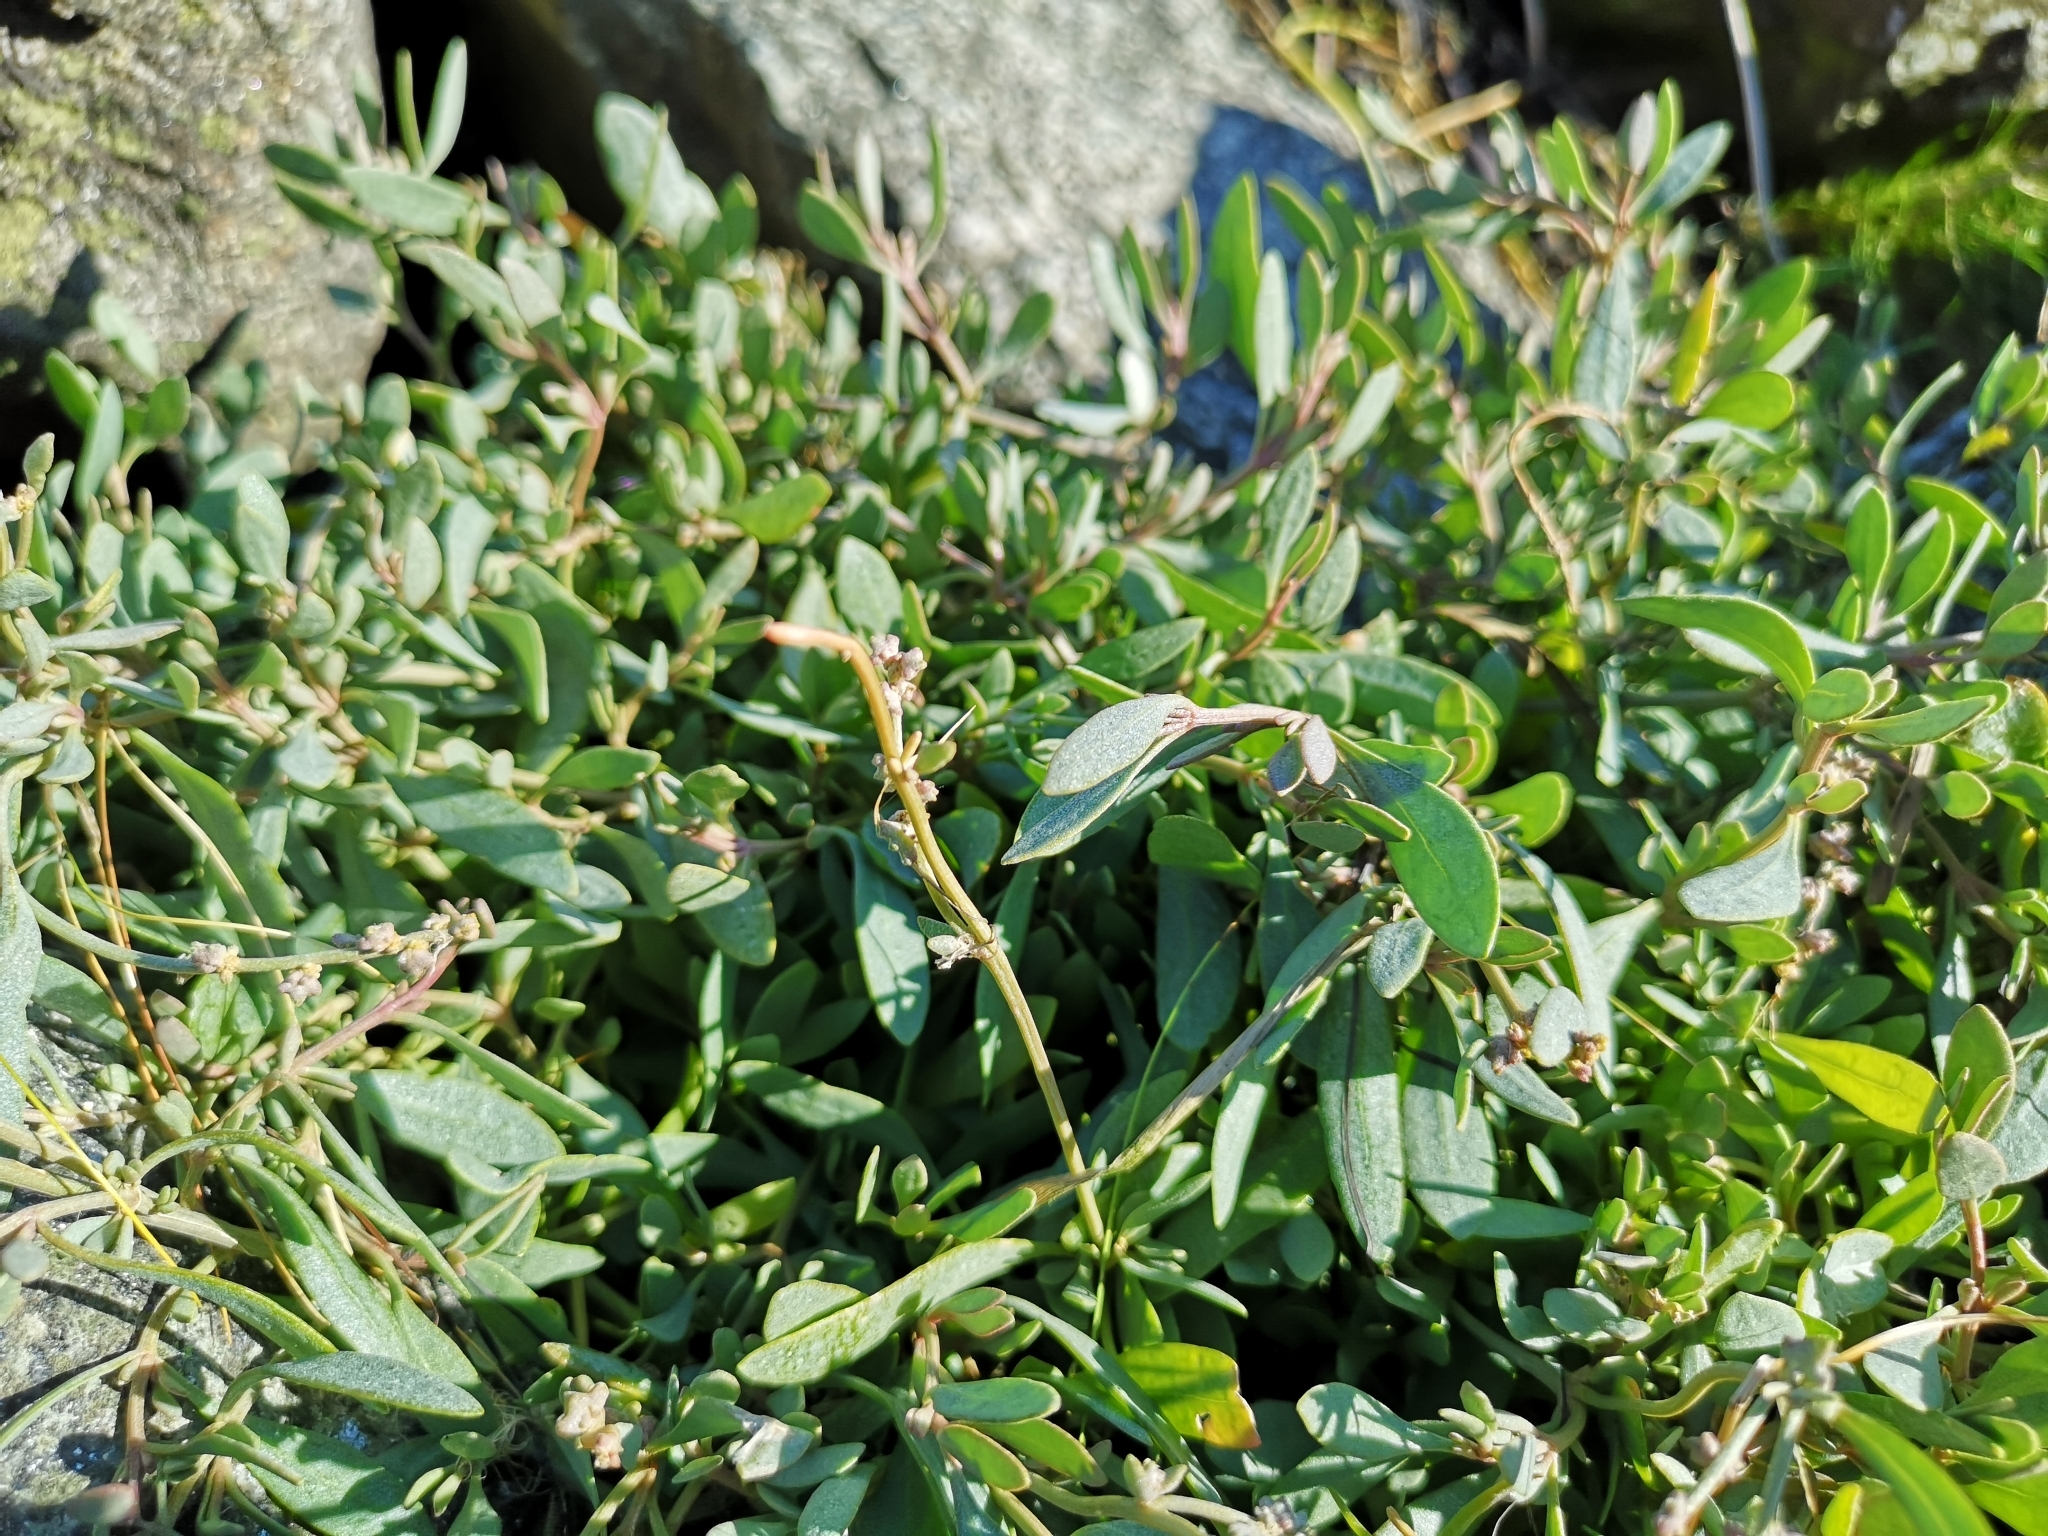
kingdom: Plantae
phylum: Tracheophyta
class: Magnoliopsida
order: Caryophyllales
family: Amaranthaceae
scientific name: Amaranthaceae
